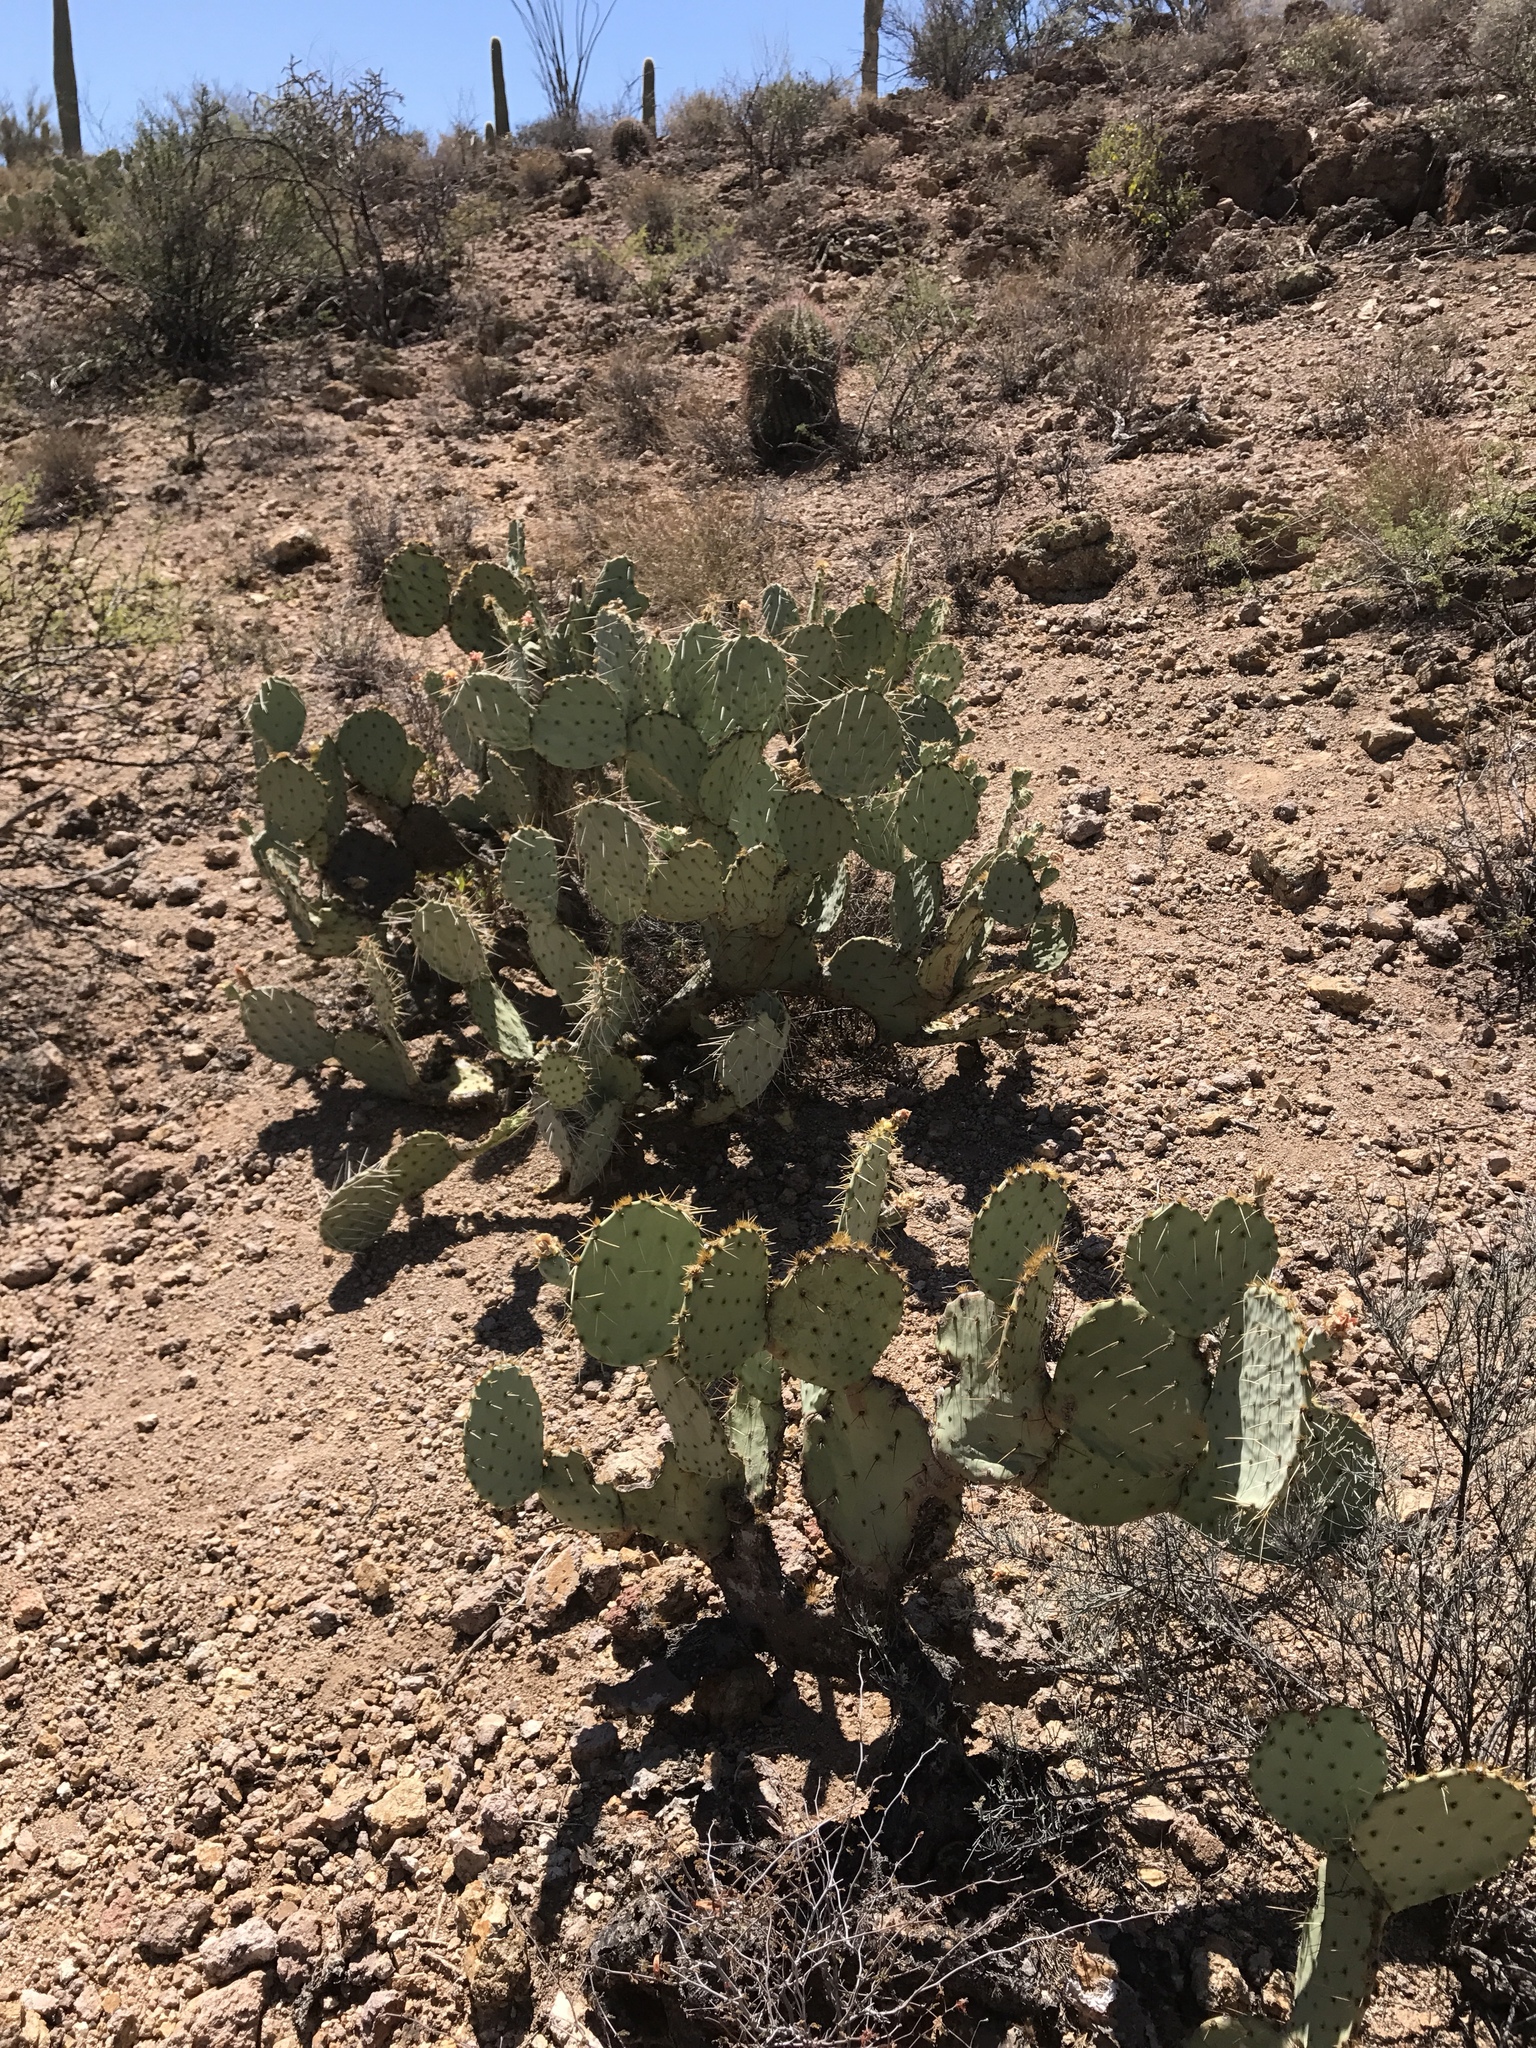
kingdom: Plantae
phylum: Tracheophyta
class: Magnoliopsida
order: Caryophyllales
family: Cactaceae
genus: Opuntia
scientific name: Opuntia engelmannii
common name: Cactus-apple
